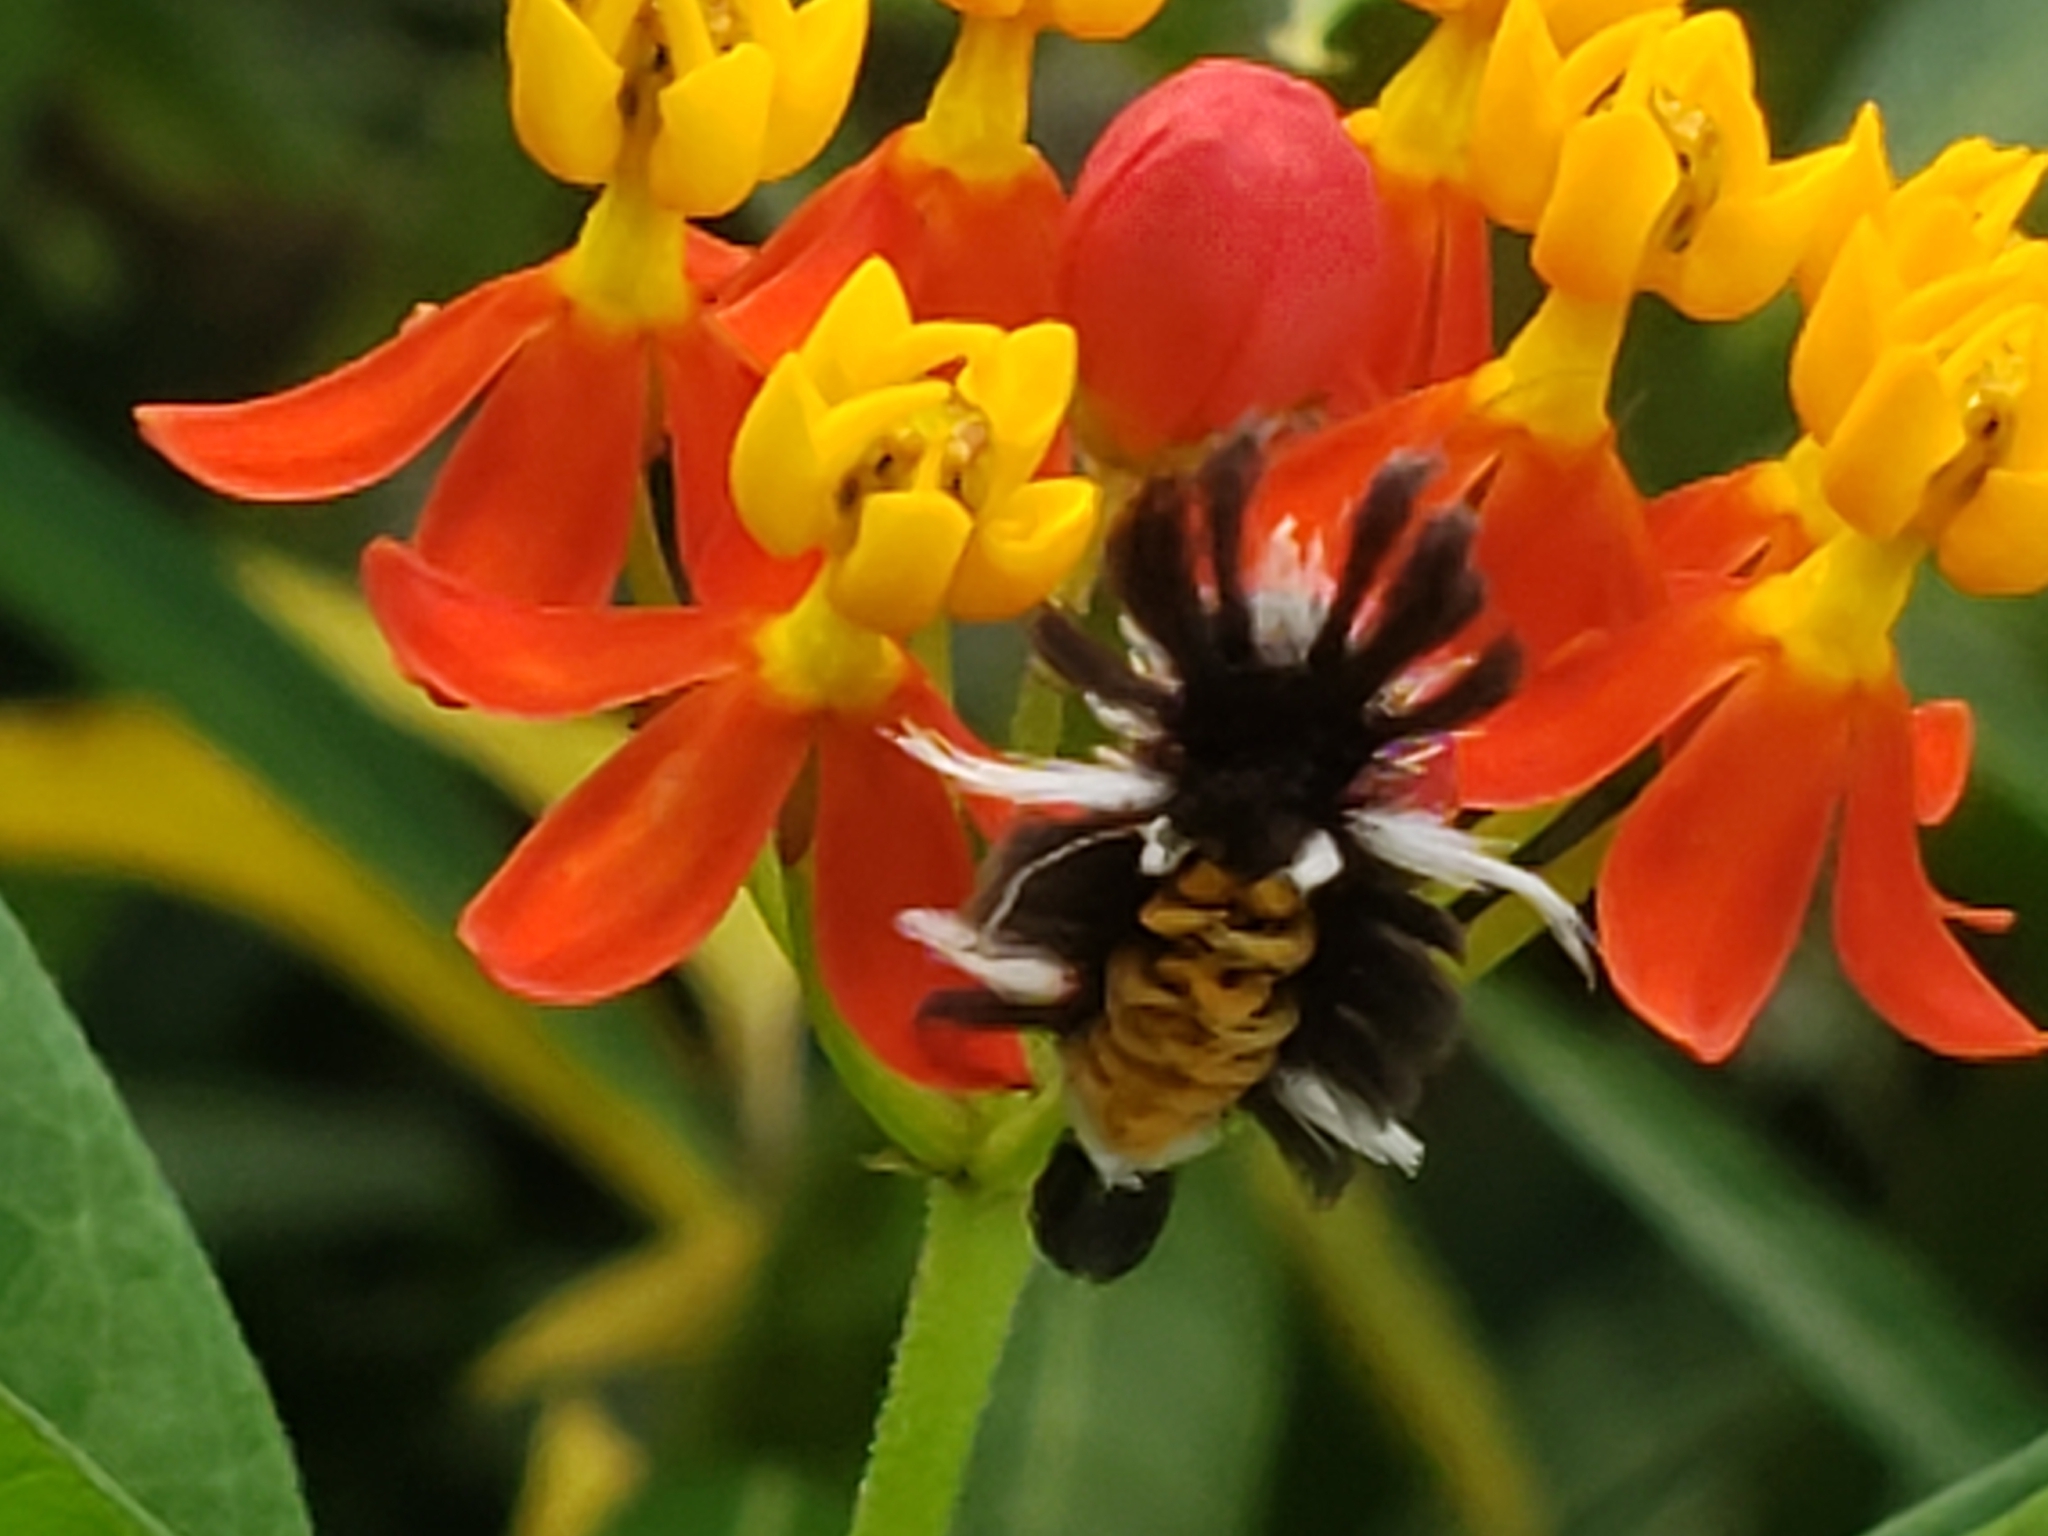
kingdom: Animalia
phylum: Arthropoda
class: Insecta
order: Lepidoptera
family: Erebidae
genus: Euchaetes
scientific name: Euchaetes egle
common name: Milkweed tussock moth
